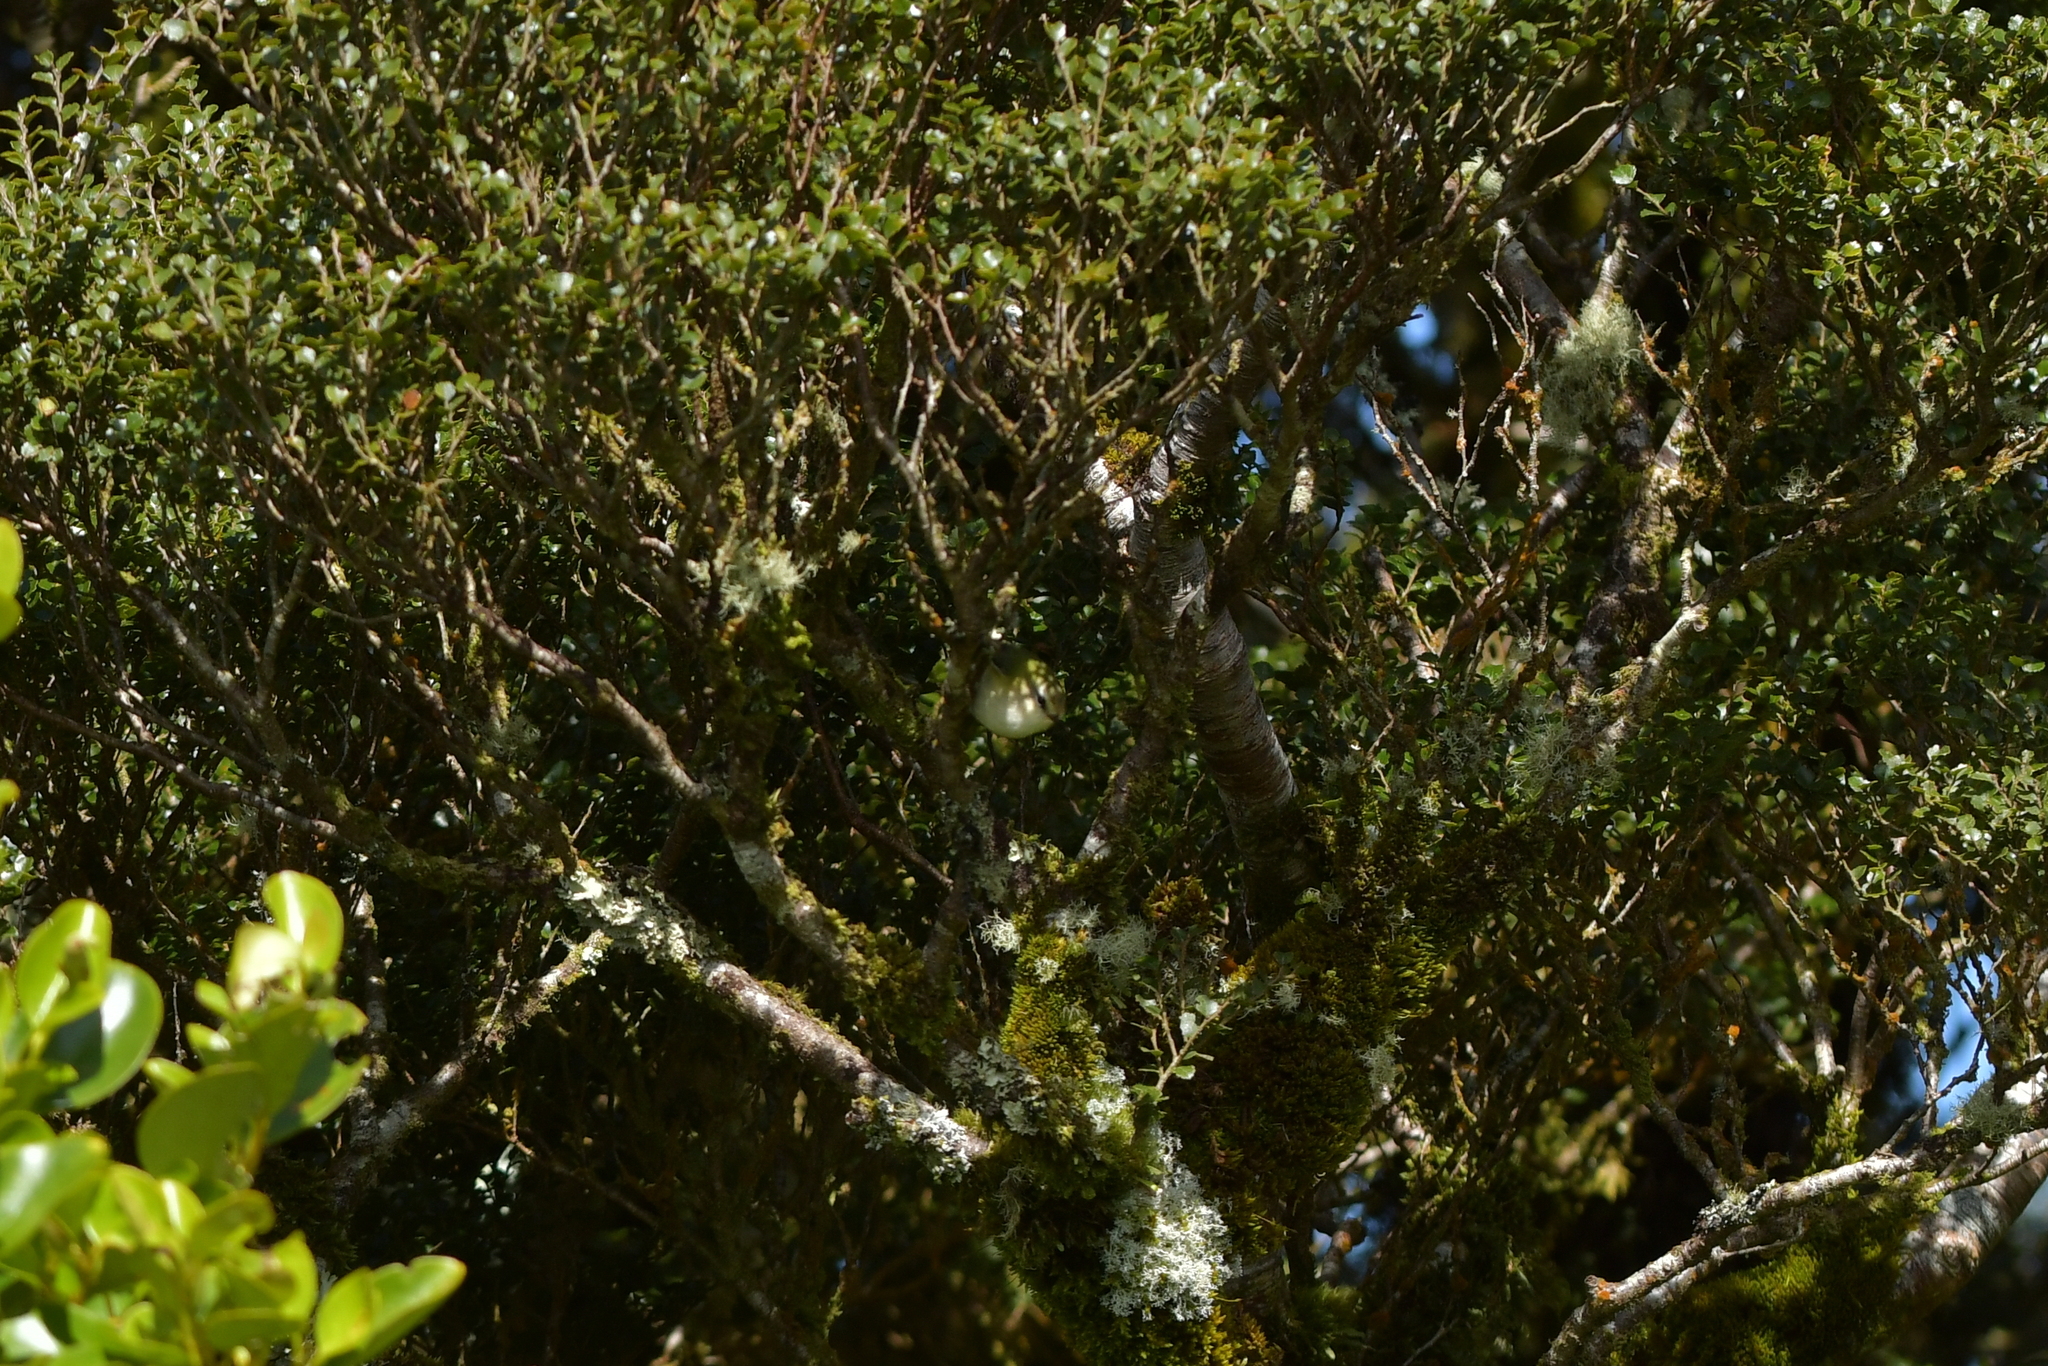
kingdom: Animalia
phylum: Chordata
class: Aves
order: Passeriformes
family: Acanthisittidae
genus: Acanthisitta
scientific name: Acanthisitta chloris
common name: Rifleman
